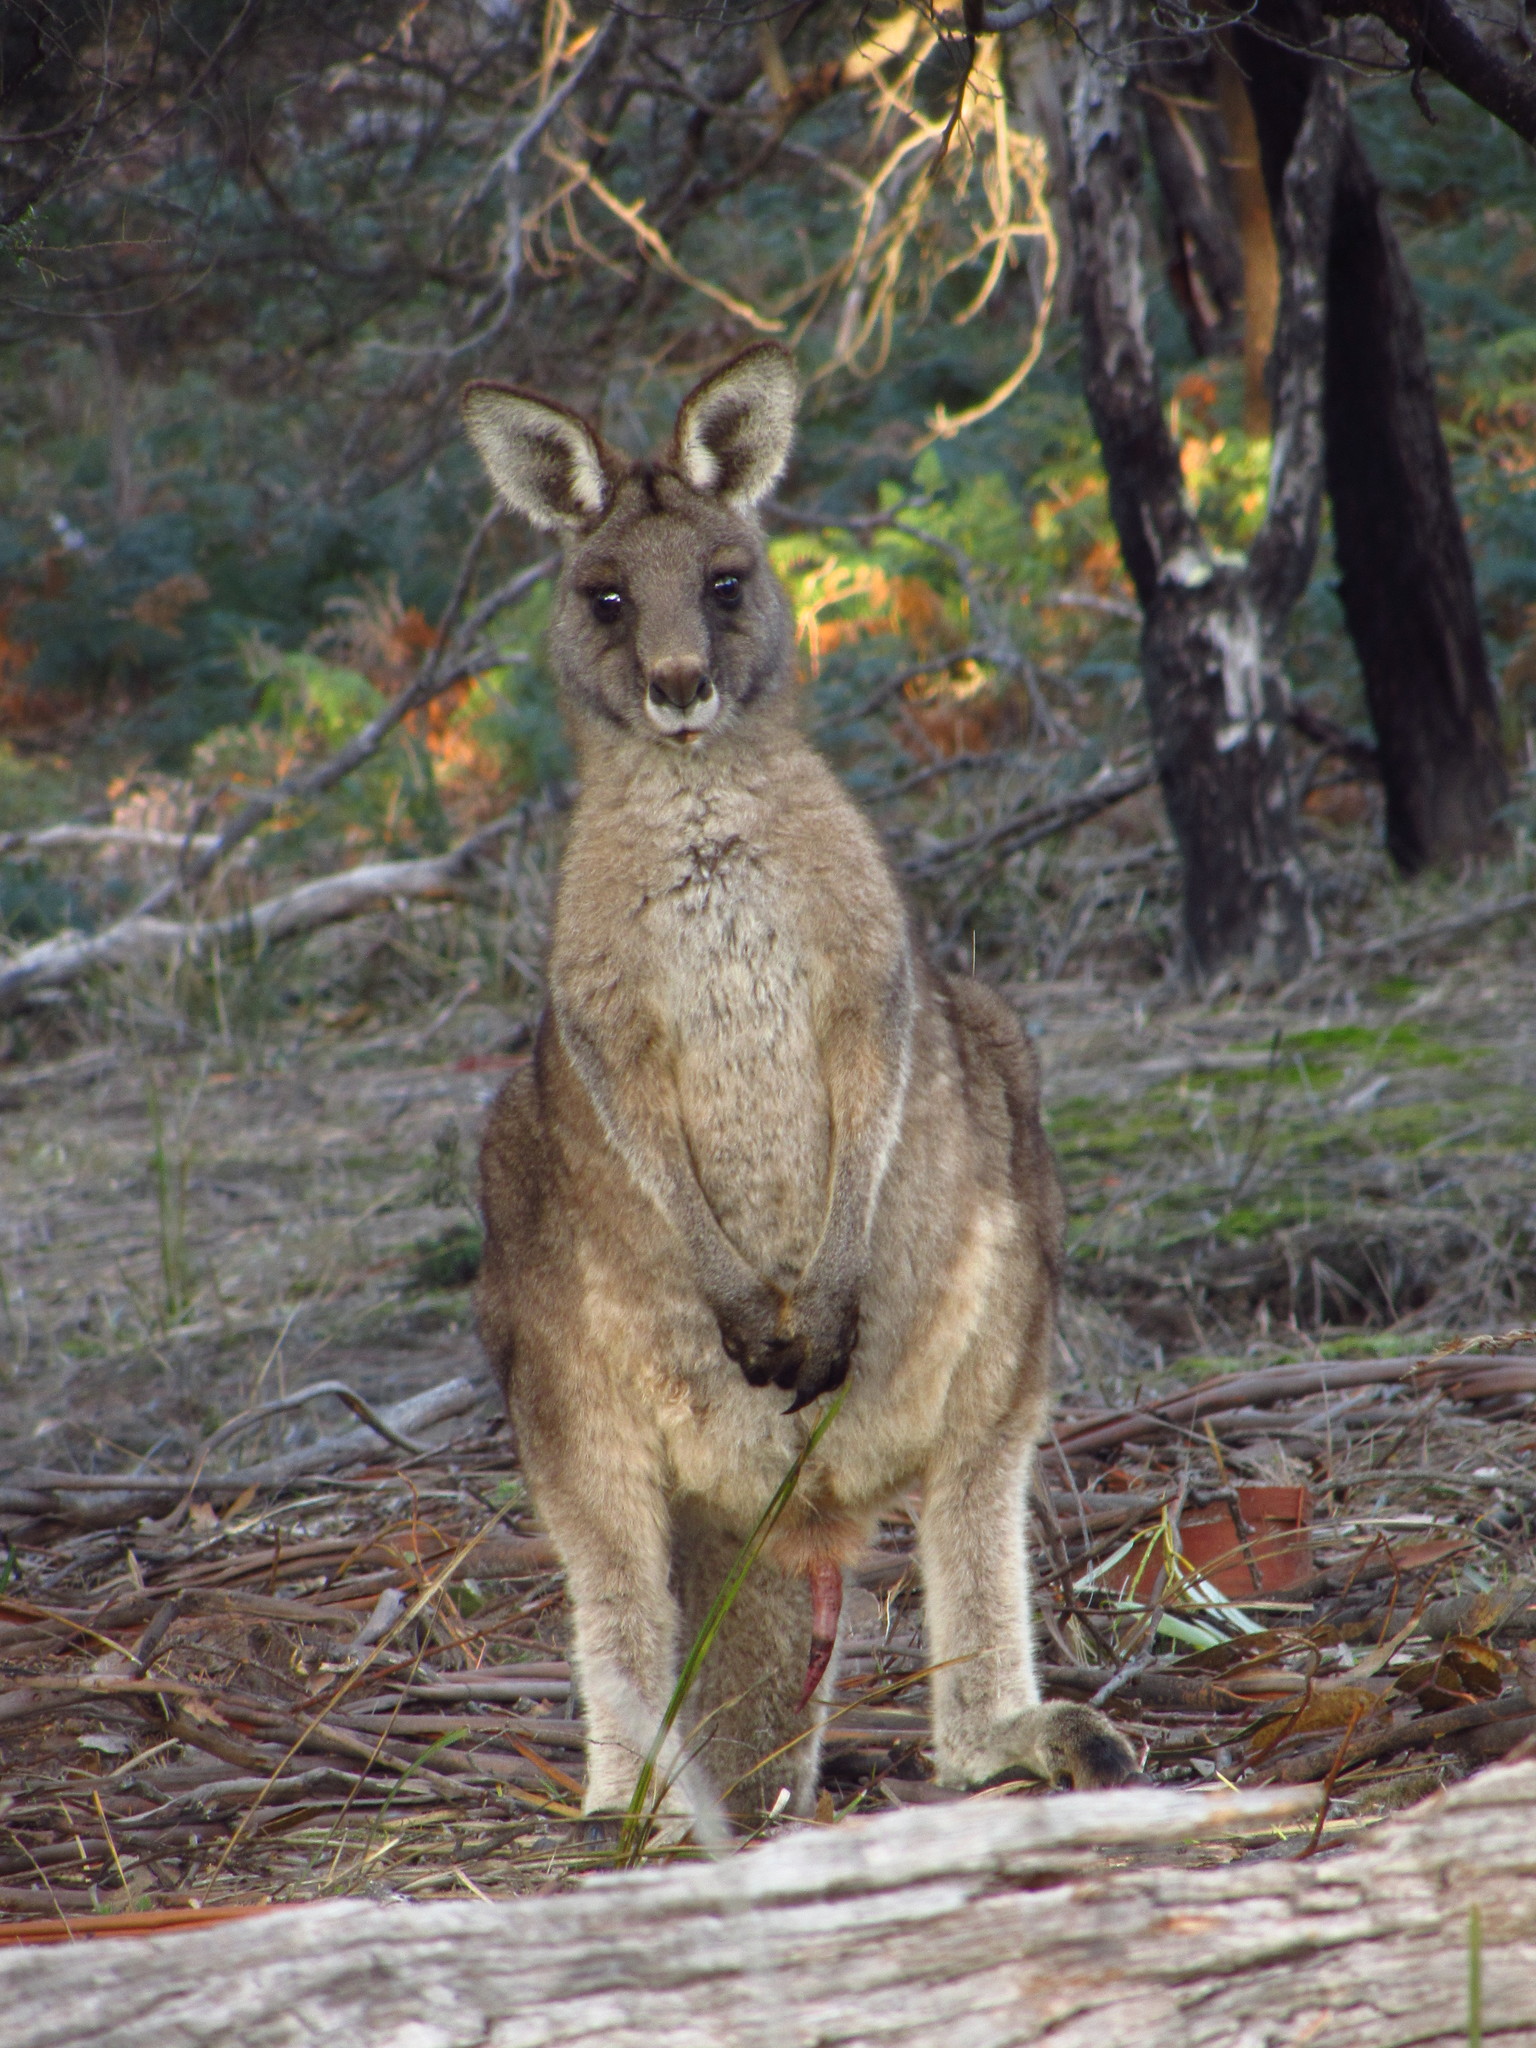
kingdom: Animalia
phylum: Chordata
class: Mammalia
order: Diprotodontia
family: Macropodidae
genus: Macropus
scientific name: Macropus giganteus
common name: Eastern grey kangaroo
